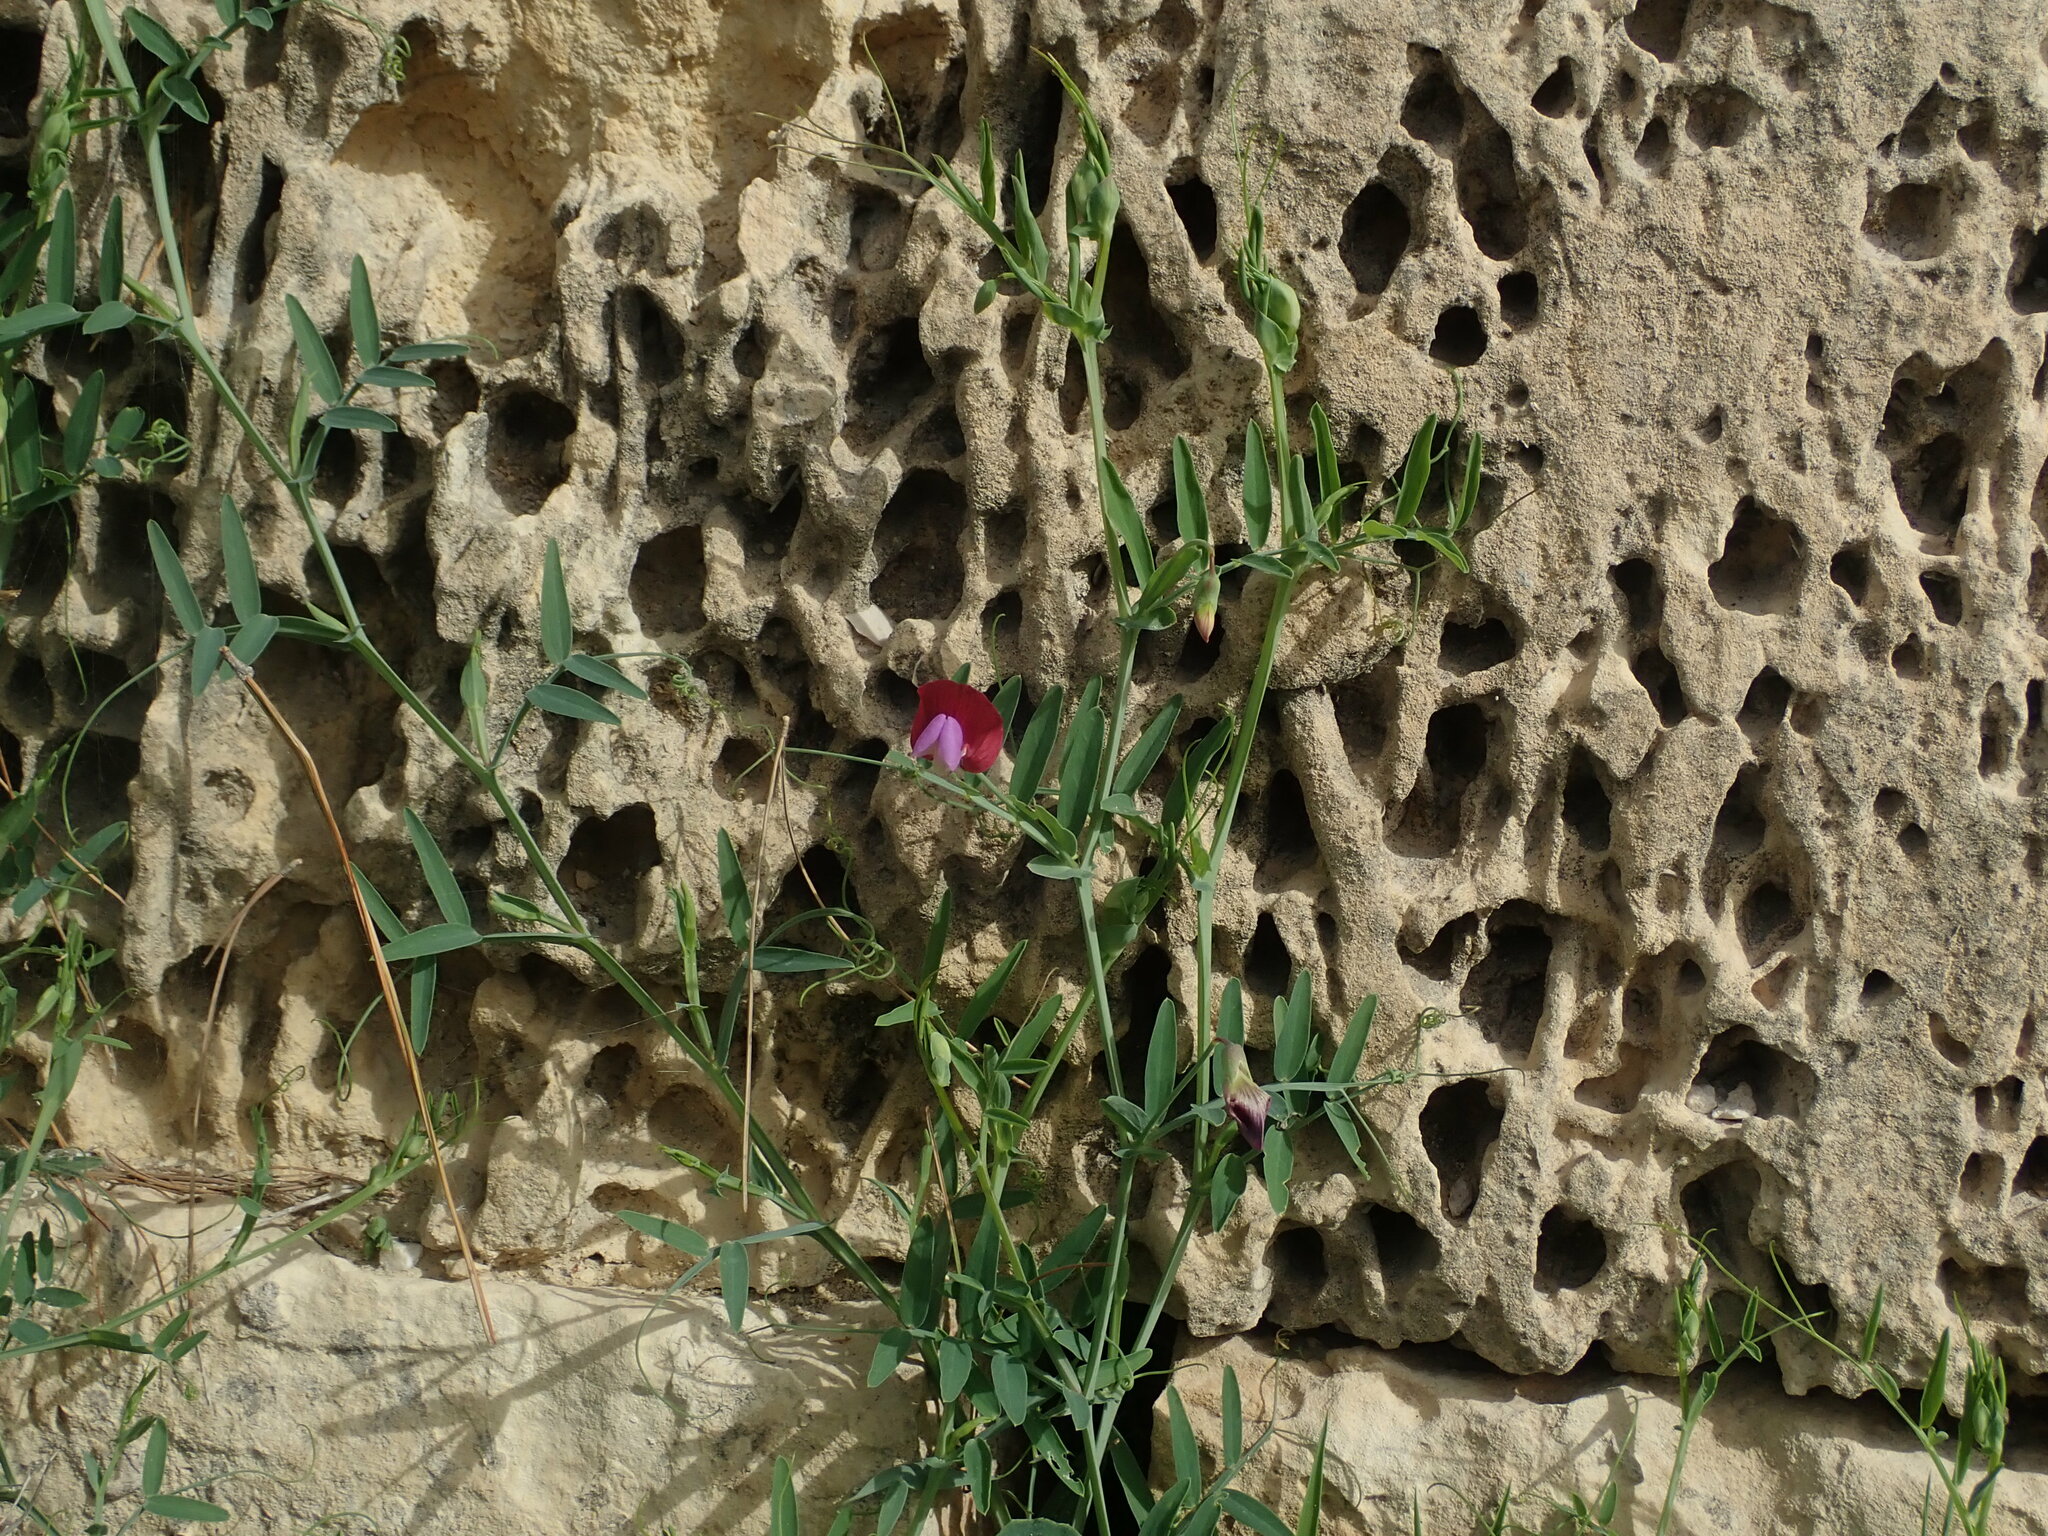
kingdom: Plantae
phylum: Tracheophyta
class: Magnoliopsida
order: Fabales
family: Fabaceae
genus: Lathyrus
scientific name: Lathyrus clymenum
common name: Spanish vetchling
